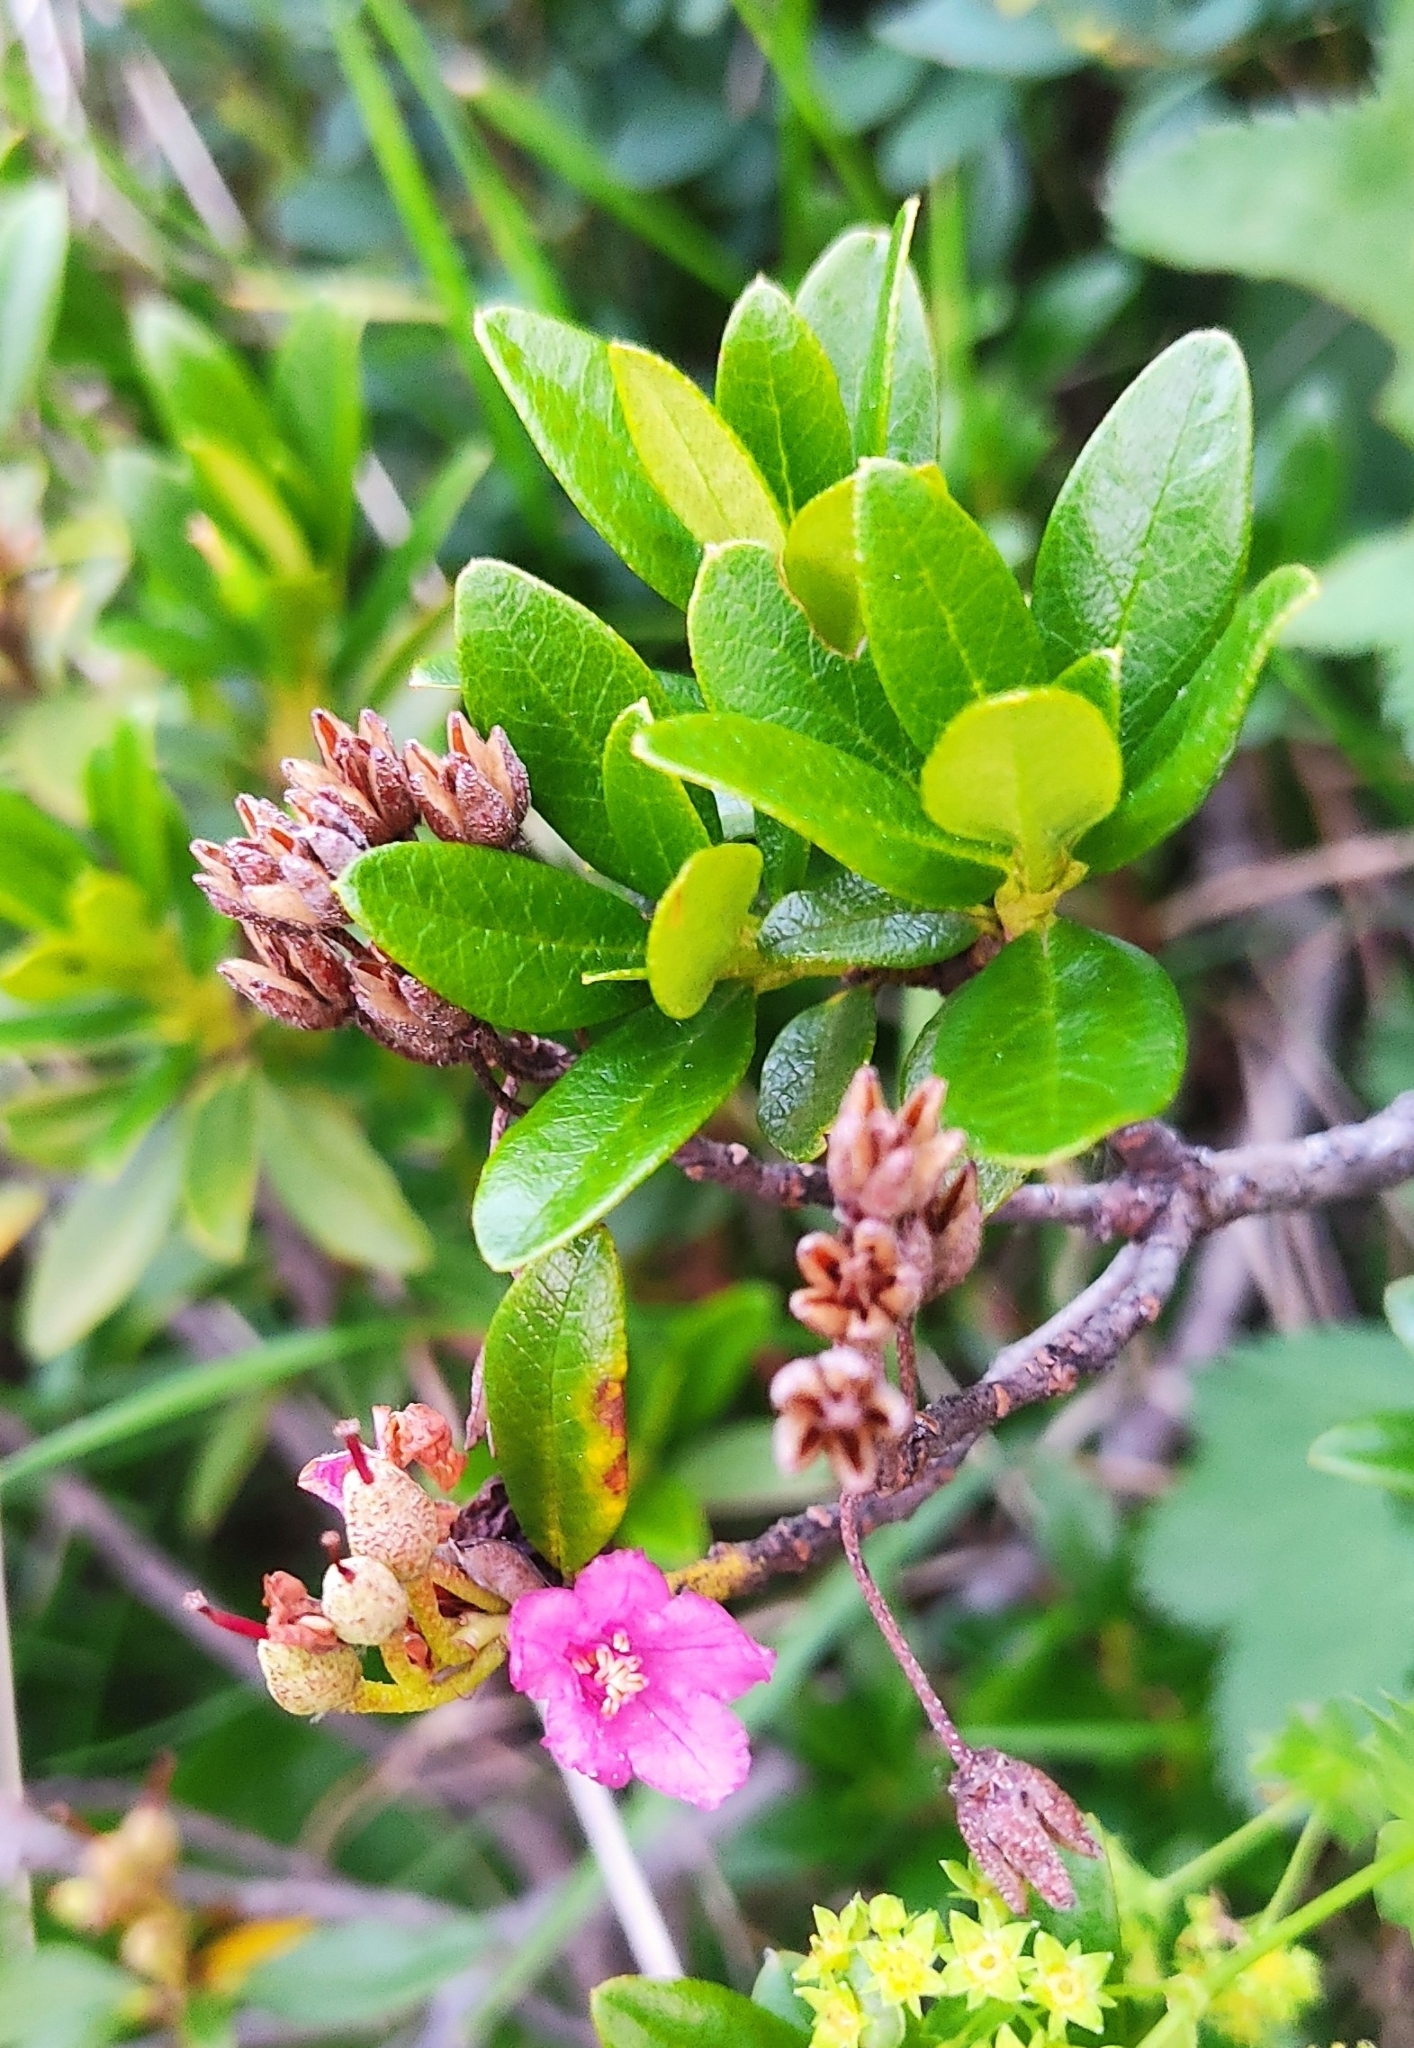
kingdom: Plantae
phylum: Tracheophyta
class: Magnoliopsida
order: Ericales
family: Ericaceae
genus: Rhododendron
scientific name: Rhododendron ferrugineum
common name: Alpenrose
